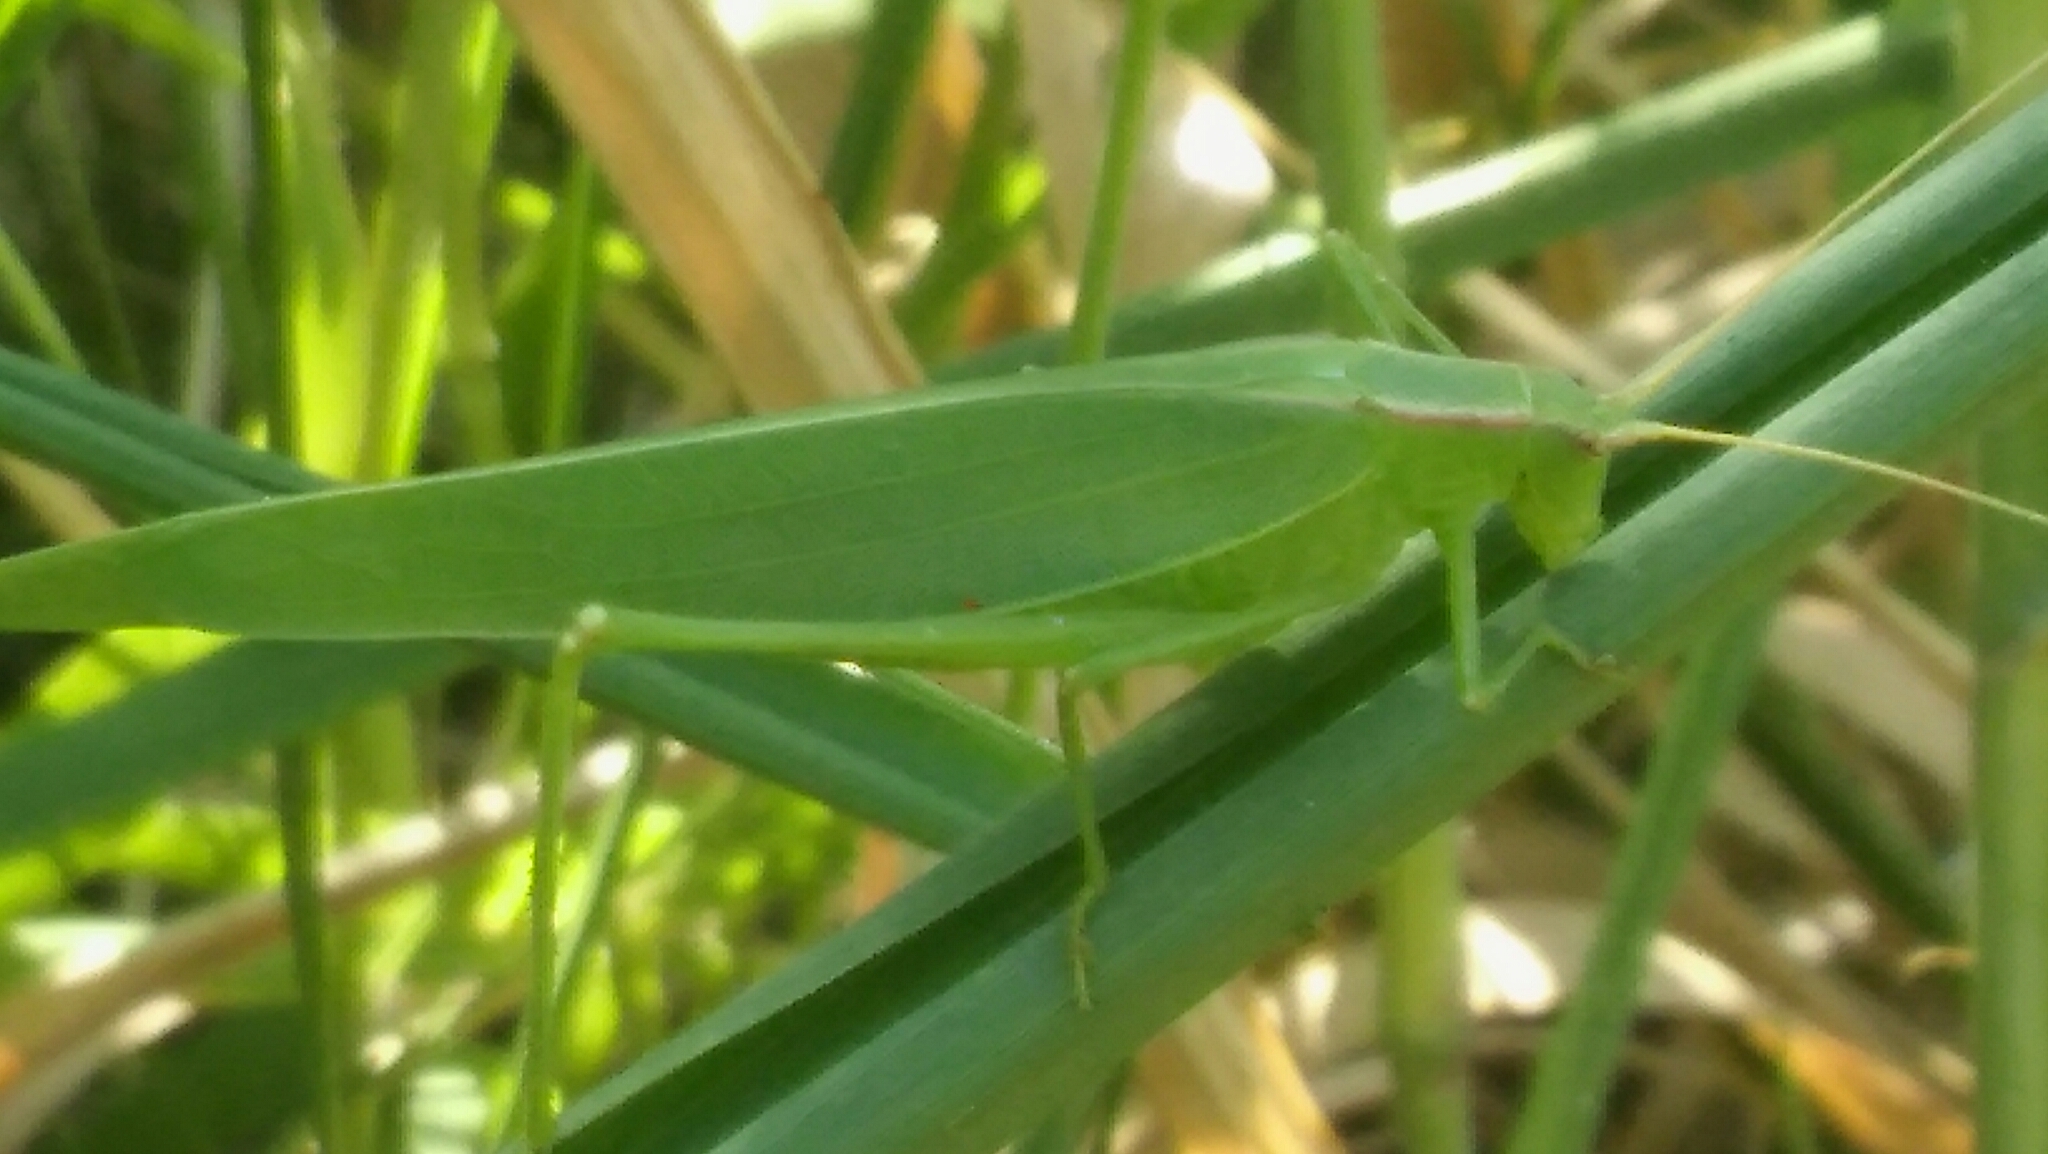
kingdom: Animalia
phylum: Arthropoda
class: Insecta
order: Orthoptera
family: Tettigoniidae
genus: Hyperophora
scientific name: Hyperophora major
